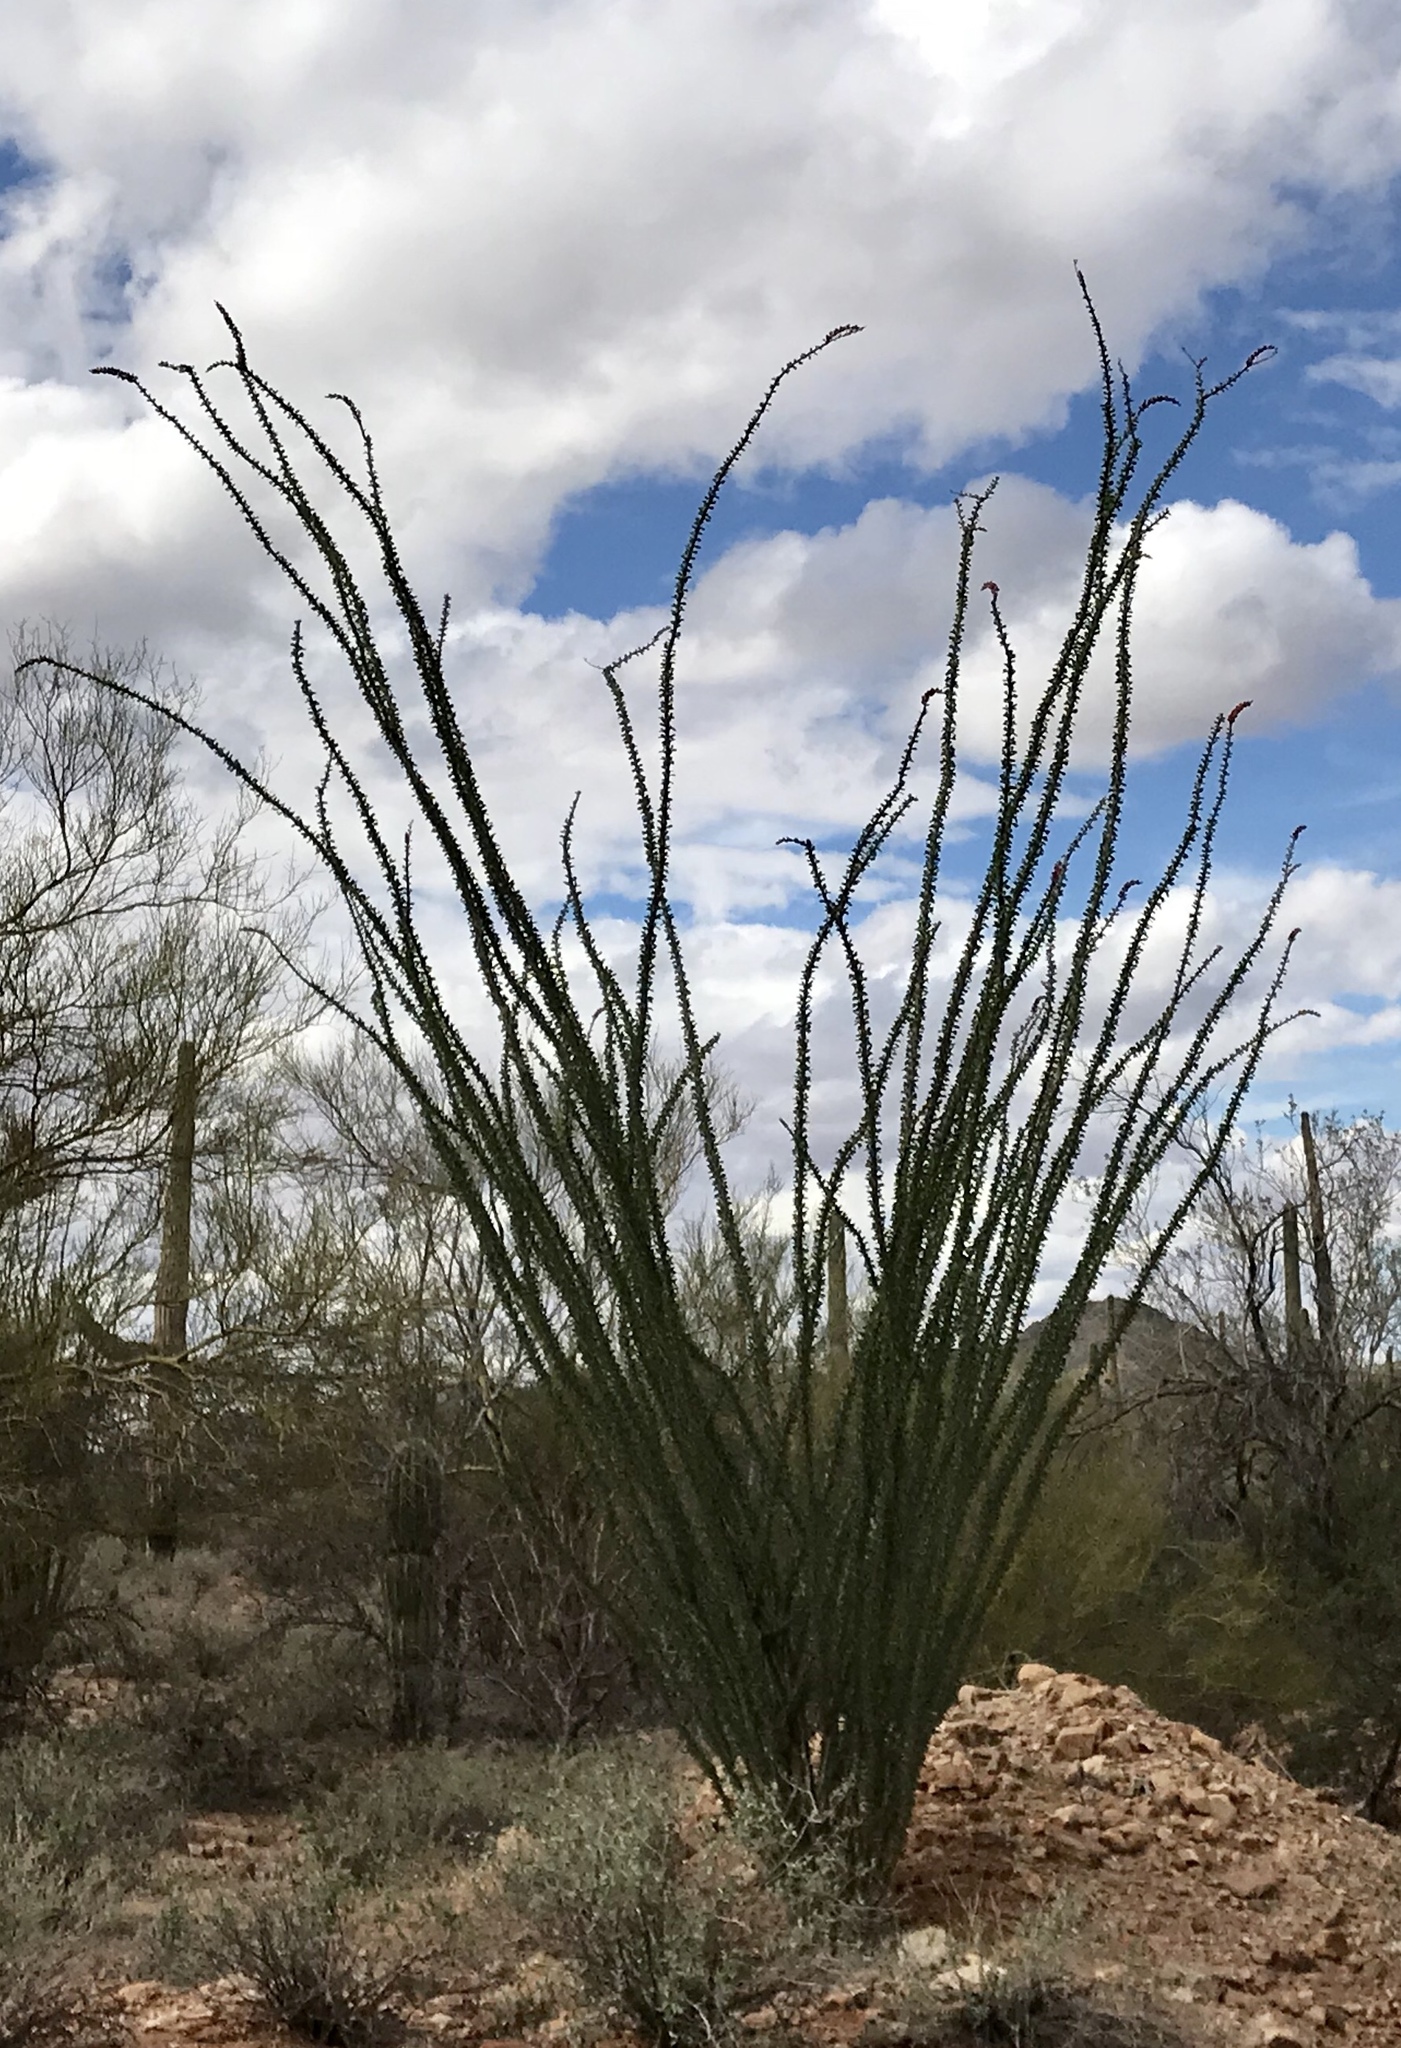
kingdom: Plantae
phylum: Tracheophyta
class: Magnoliopsida
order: Ericales
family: Fouquieriaceae
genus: Fouquieria
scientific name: Fouquieria splendens
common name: Vine-cactus
